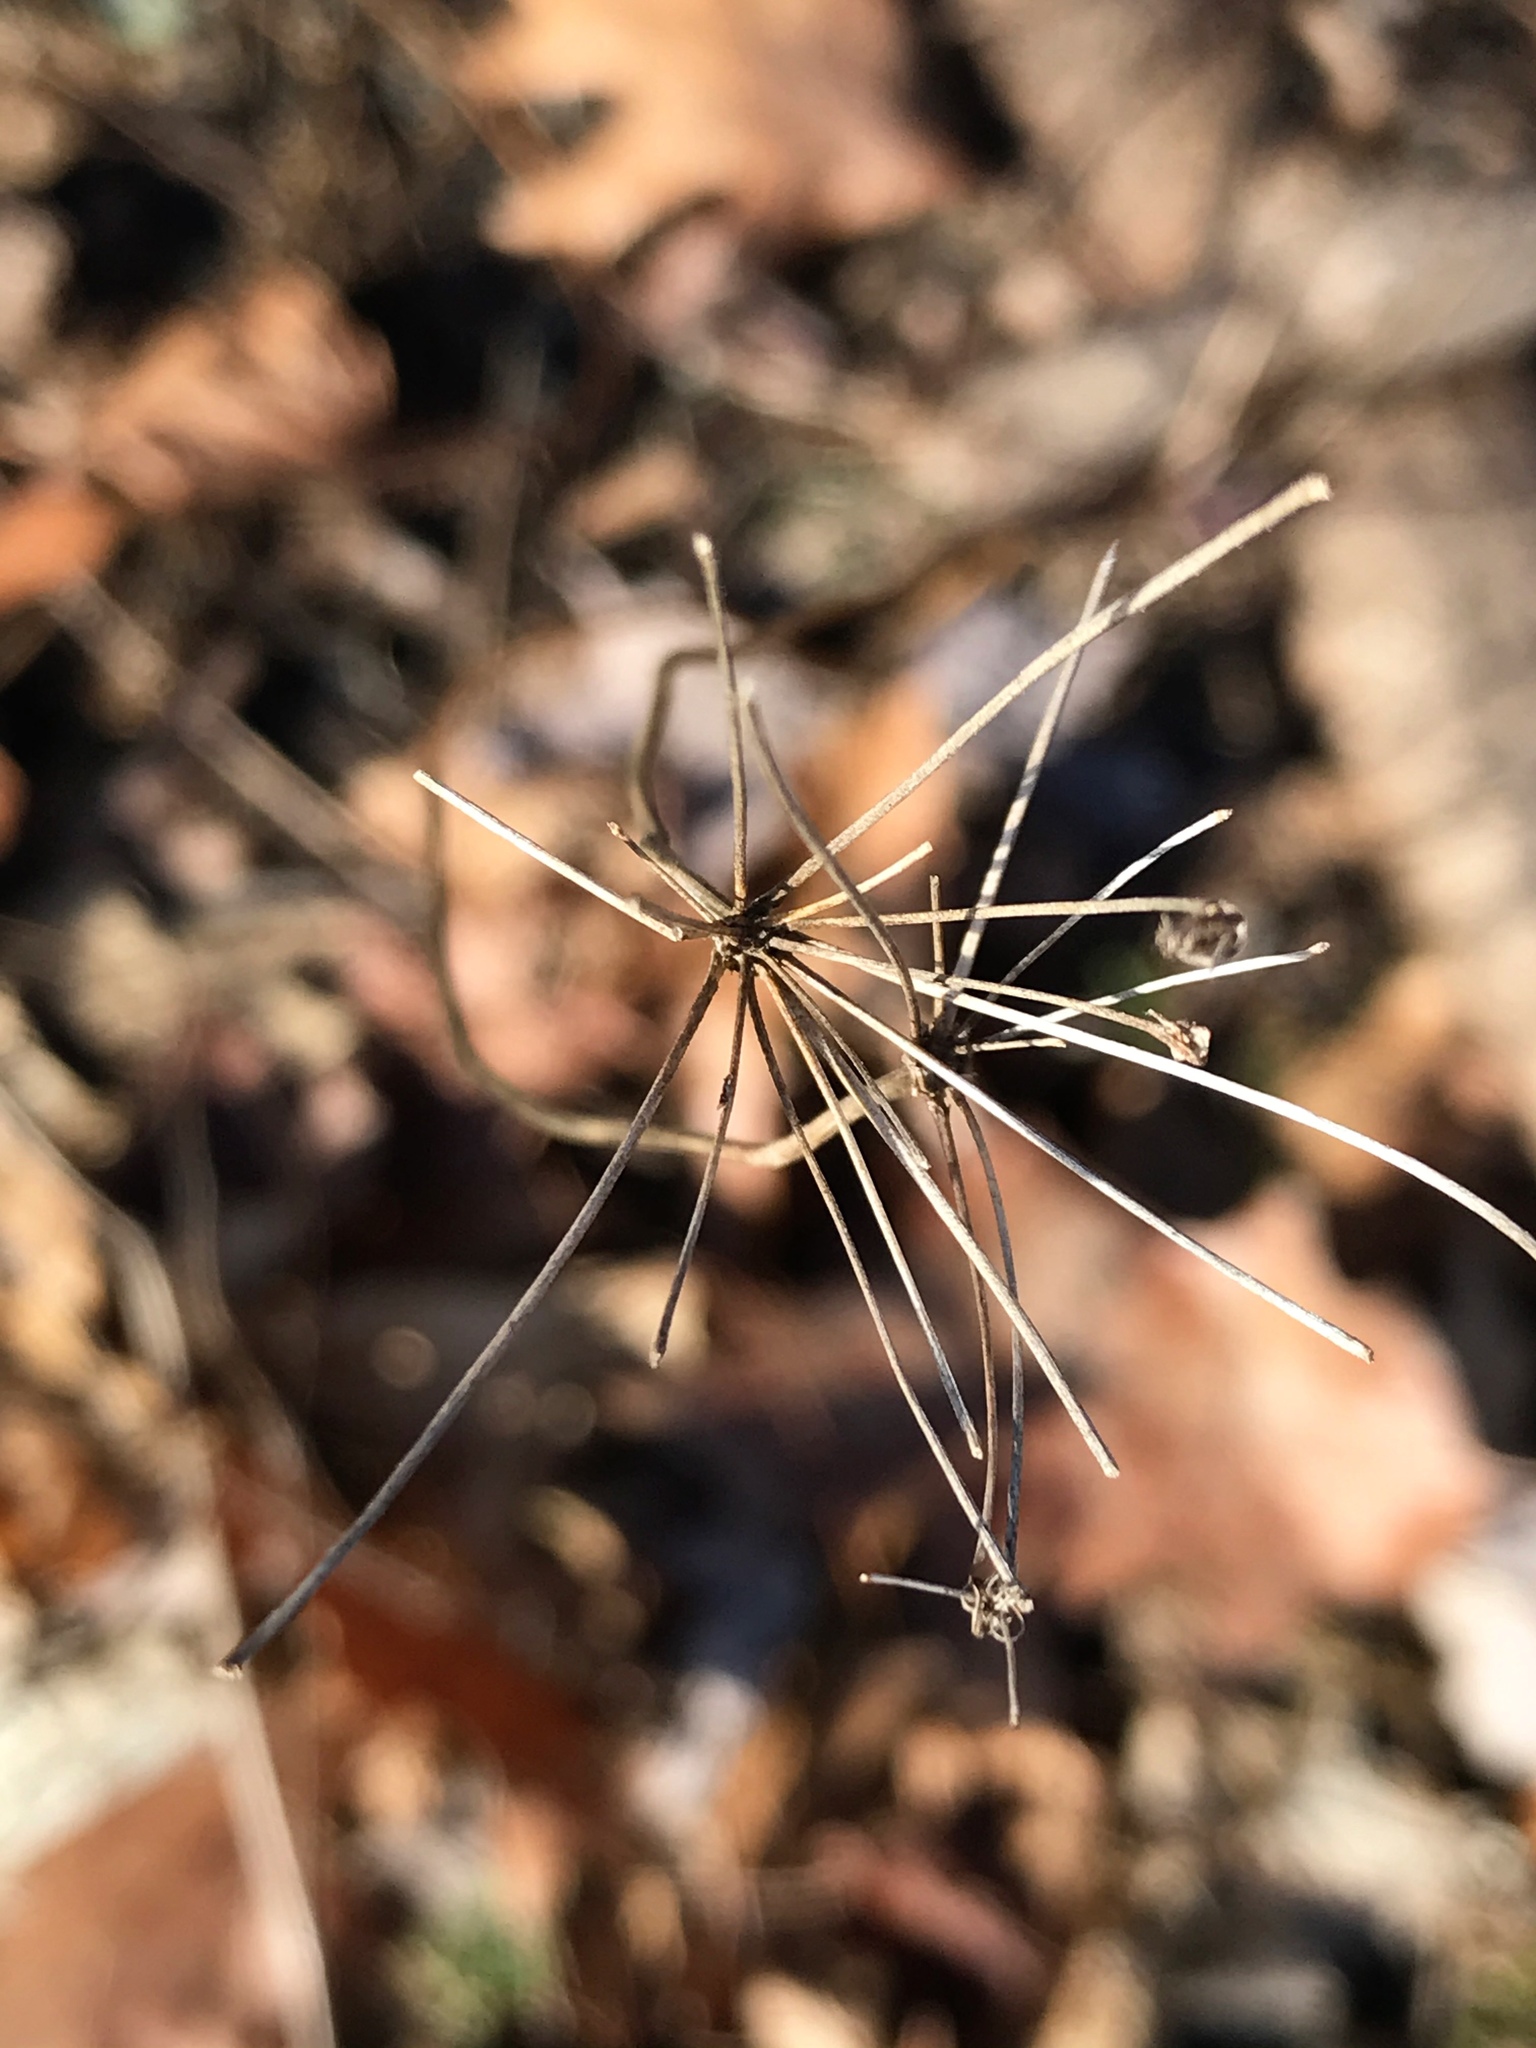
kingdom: Plantae
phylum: Tracheophyta
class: Magnoliopsida
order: Apiales
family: Apiaceae
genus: Daucus
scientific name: Daucus carota
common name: Wild carrot
